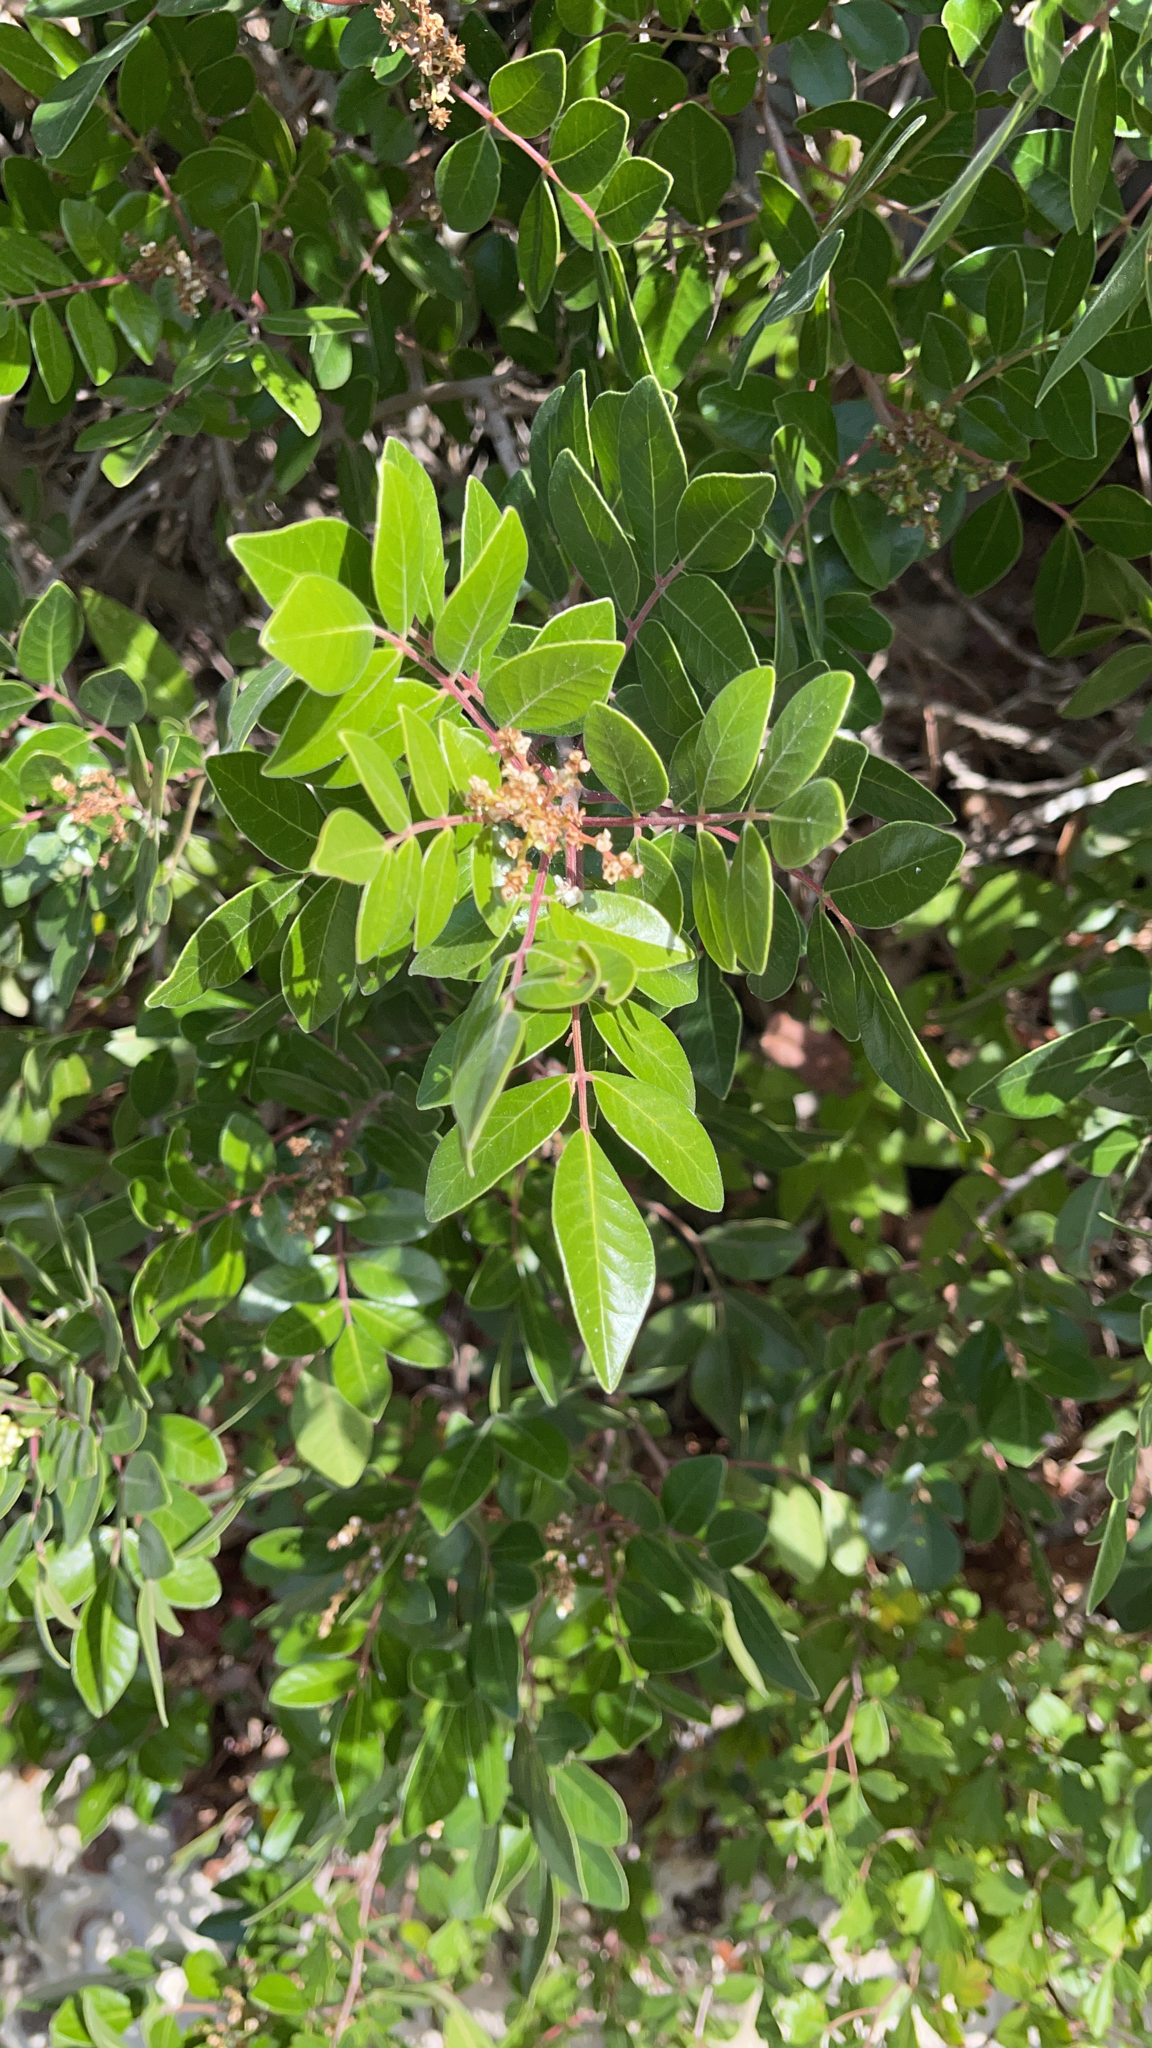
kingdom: Plantae
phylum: Tracheophyta
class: Magnoliopsida
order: Sapindales
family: Anacardiaceae
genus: Rhus
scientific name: Rhus virens
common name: Evergreen sumac
